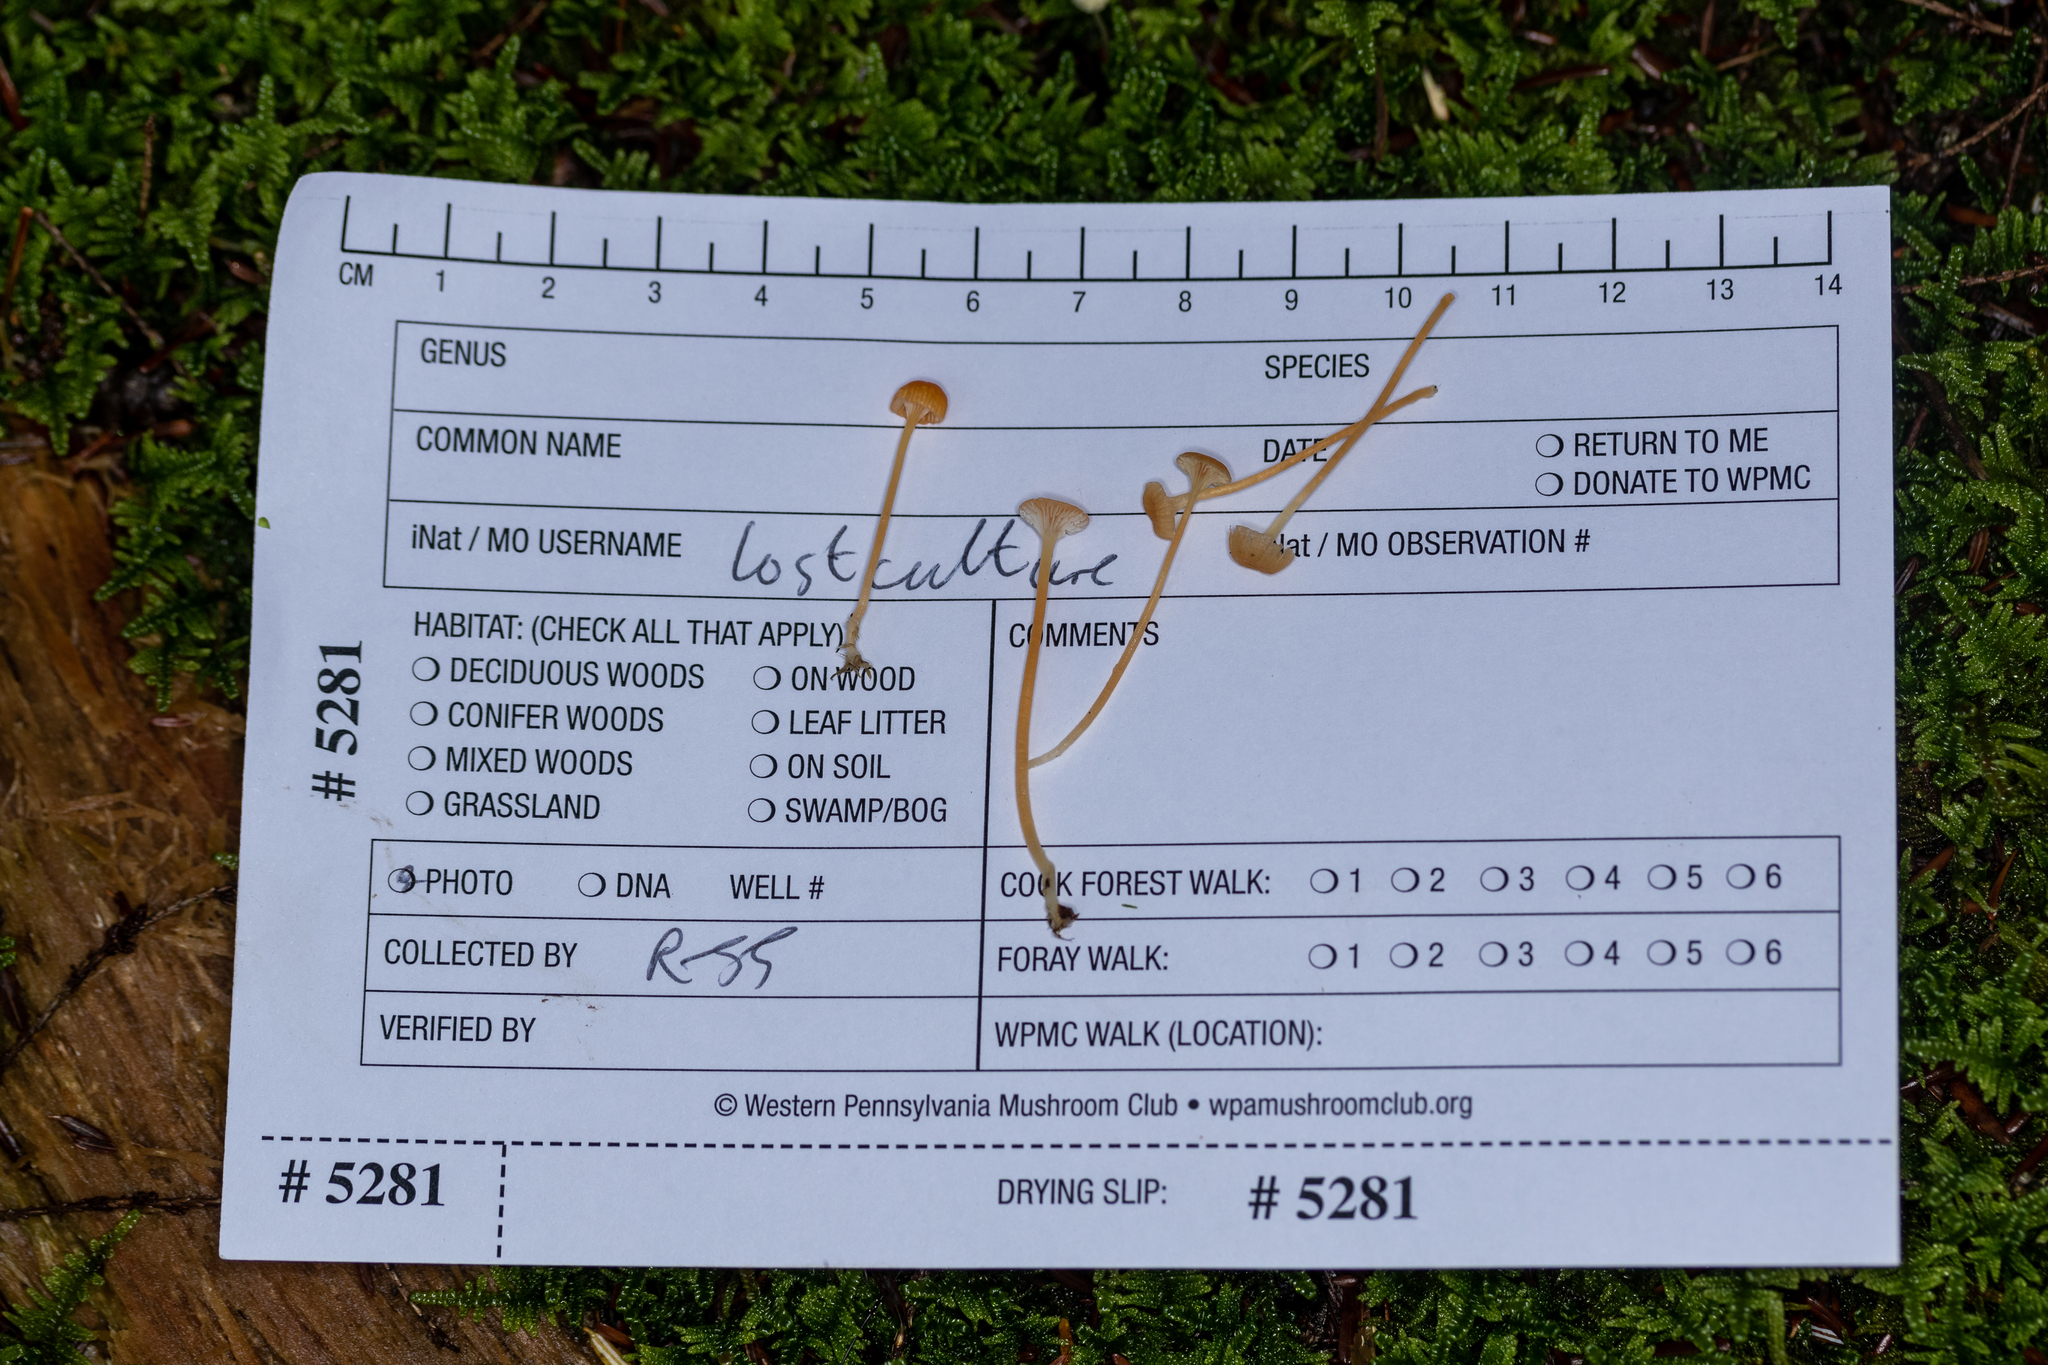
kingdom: Fungi
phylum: Basidiomycota
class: Agaricomycetes
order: Hymenochaetales
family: Rickenellaceae
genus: Rickenella
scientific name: Rickenella fibula
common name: Orange mosscap
